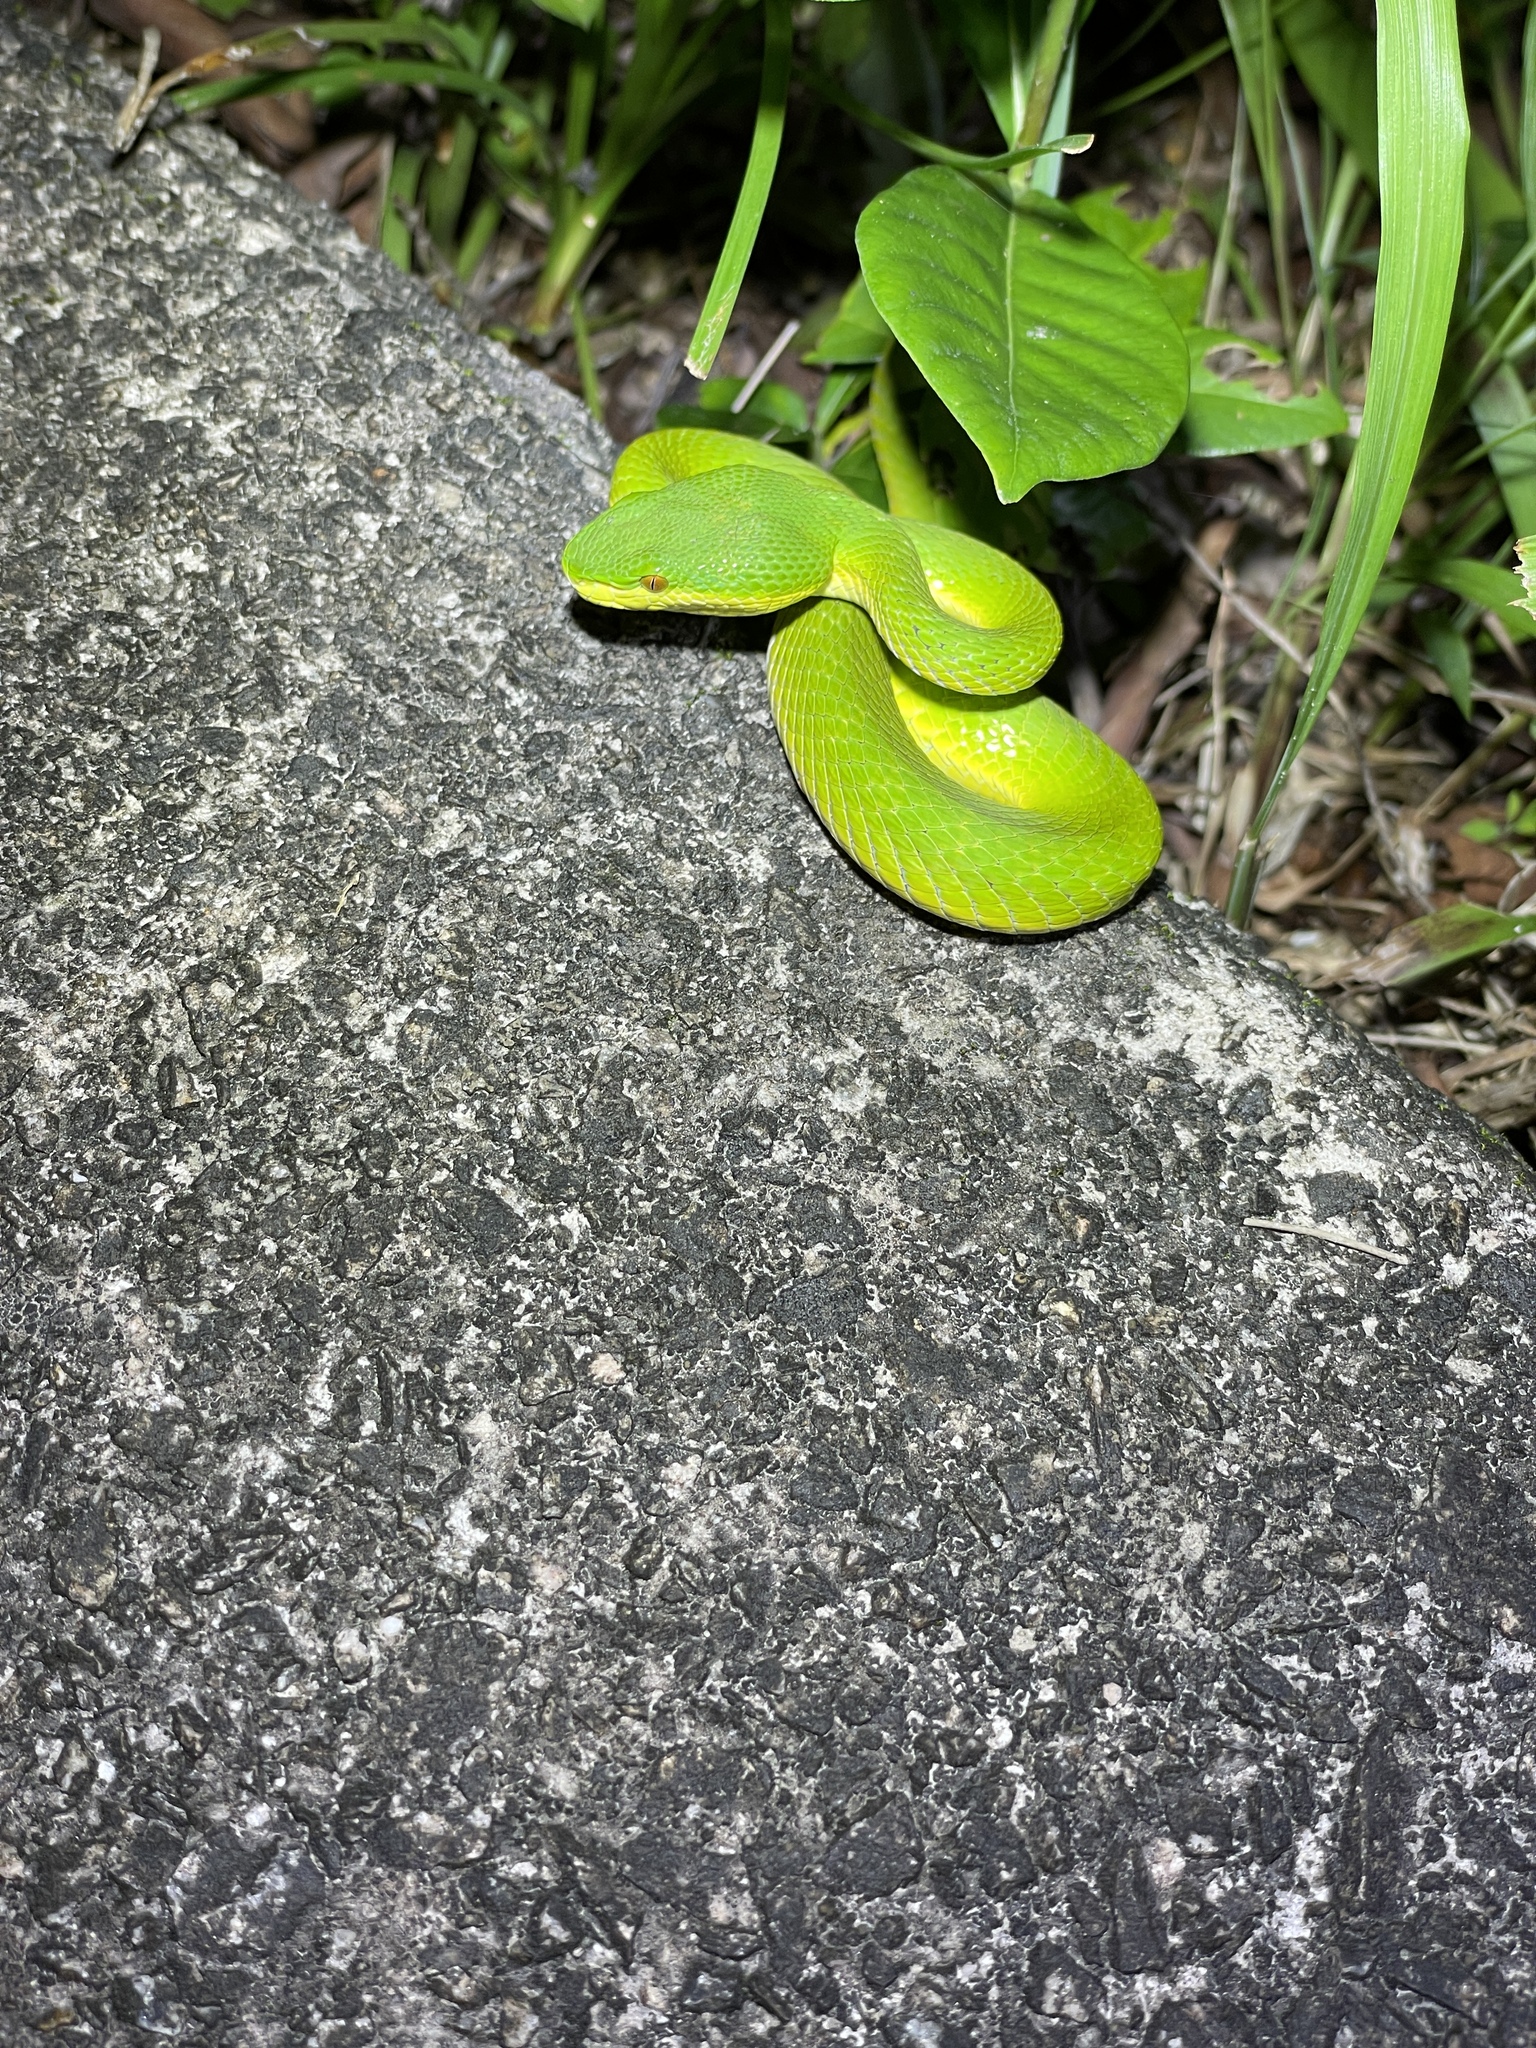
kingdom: Animalia
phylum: Chordata
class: Squamata
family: Viperidae
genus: Trimeresurus
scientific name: Trimeresurus albolabris
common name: White-lipped pitviper
